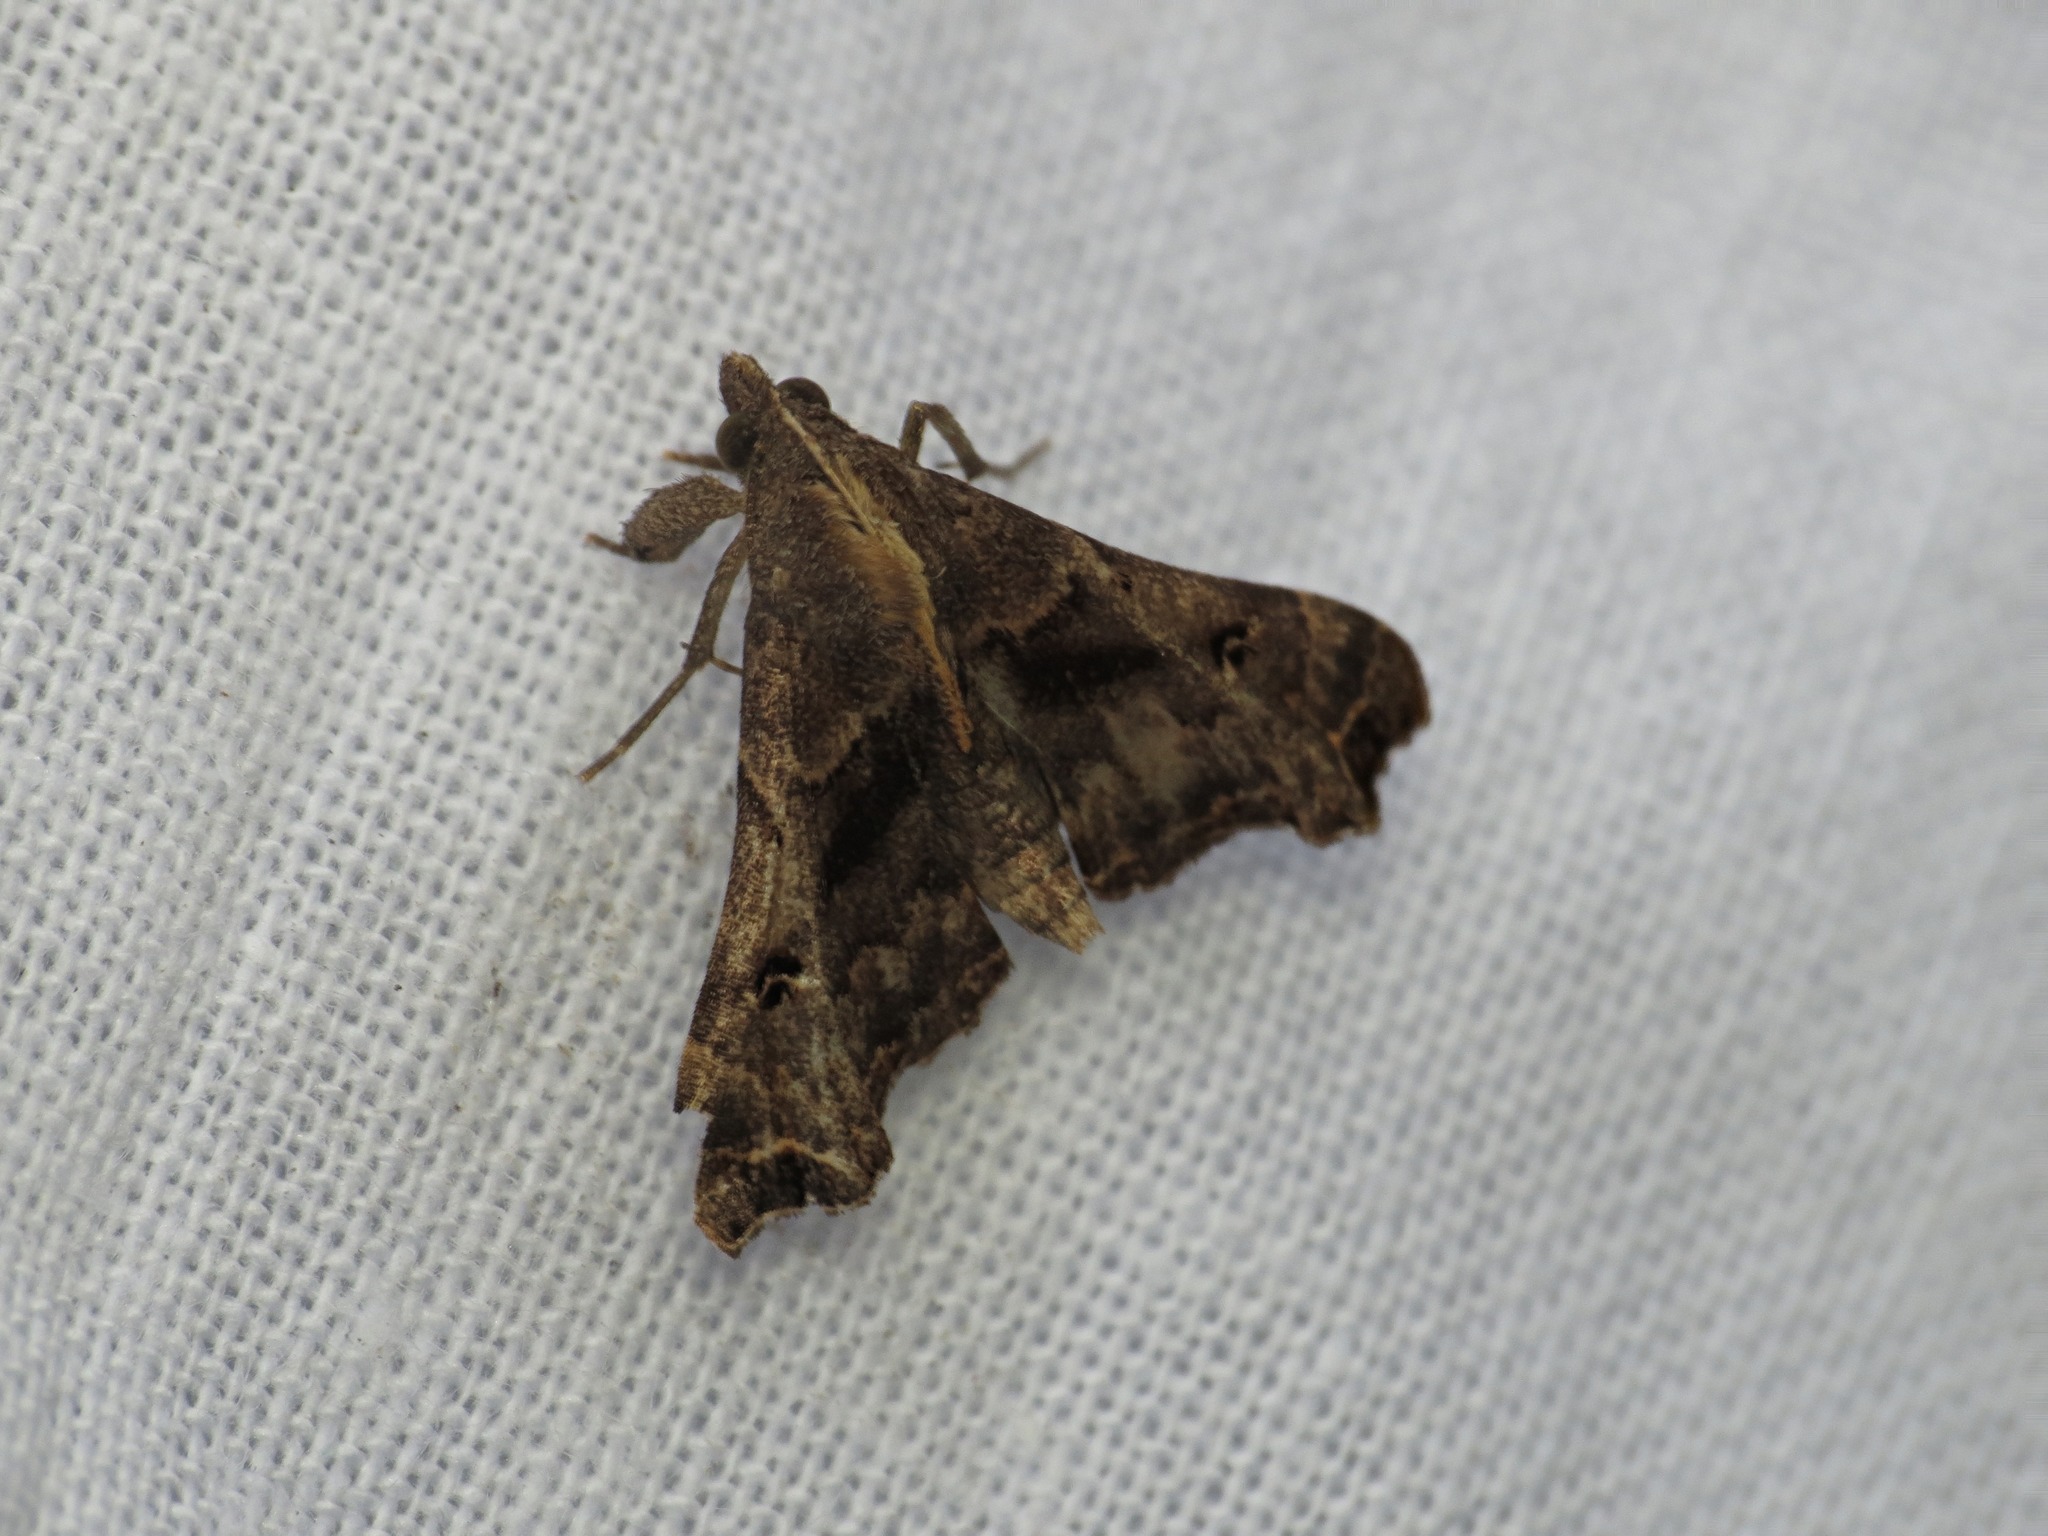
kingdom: Animalia
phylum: Arthropoda
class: Insecta
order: Lepidoptera
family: Erebidae
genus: Palthis
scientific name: Palthis asopialis
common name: Faint-spotted palthis moth
